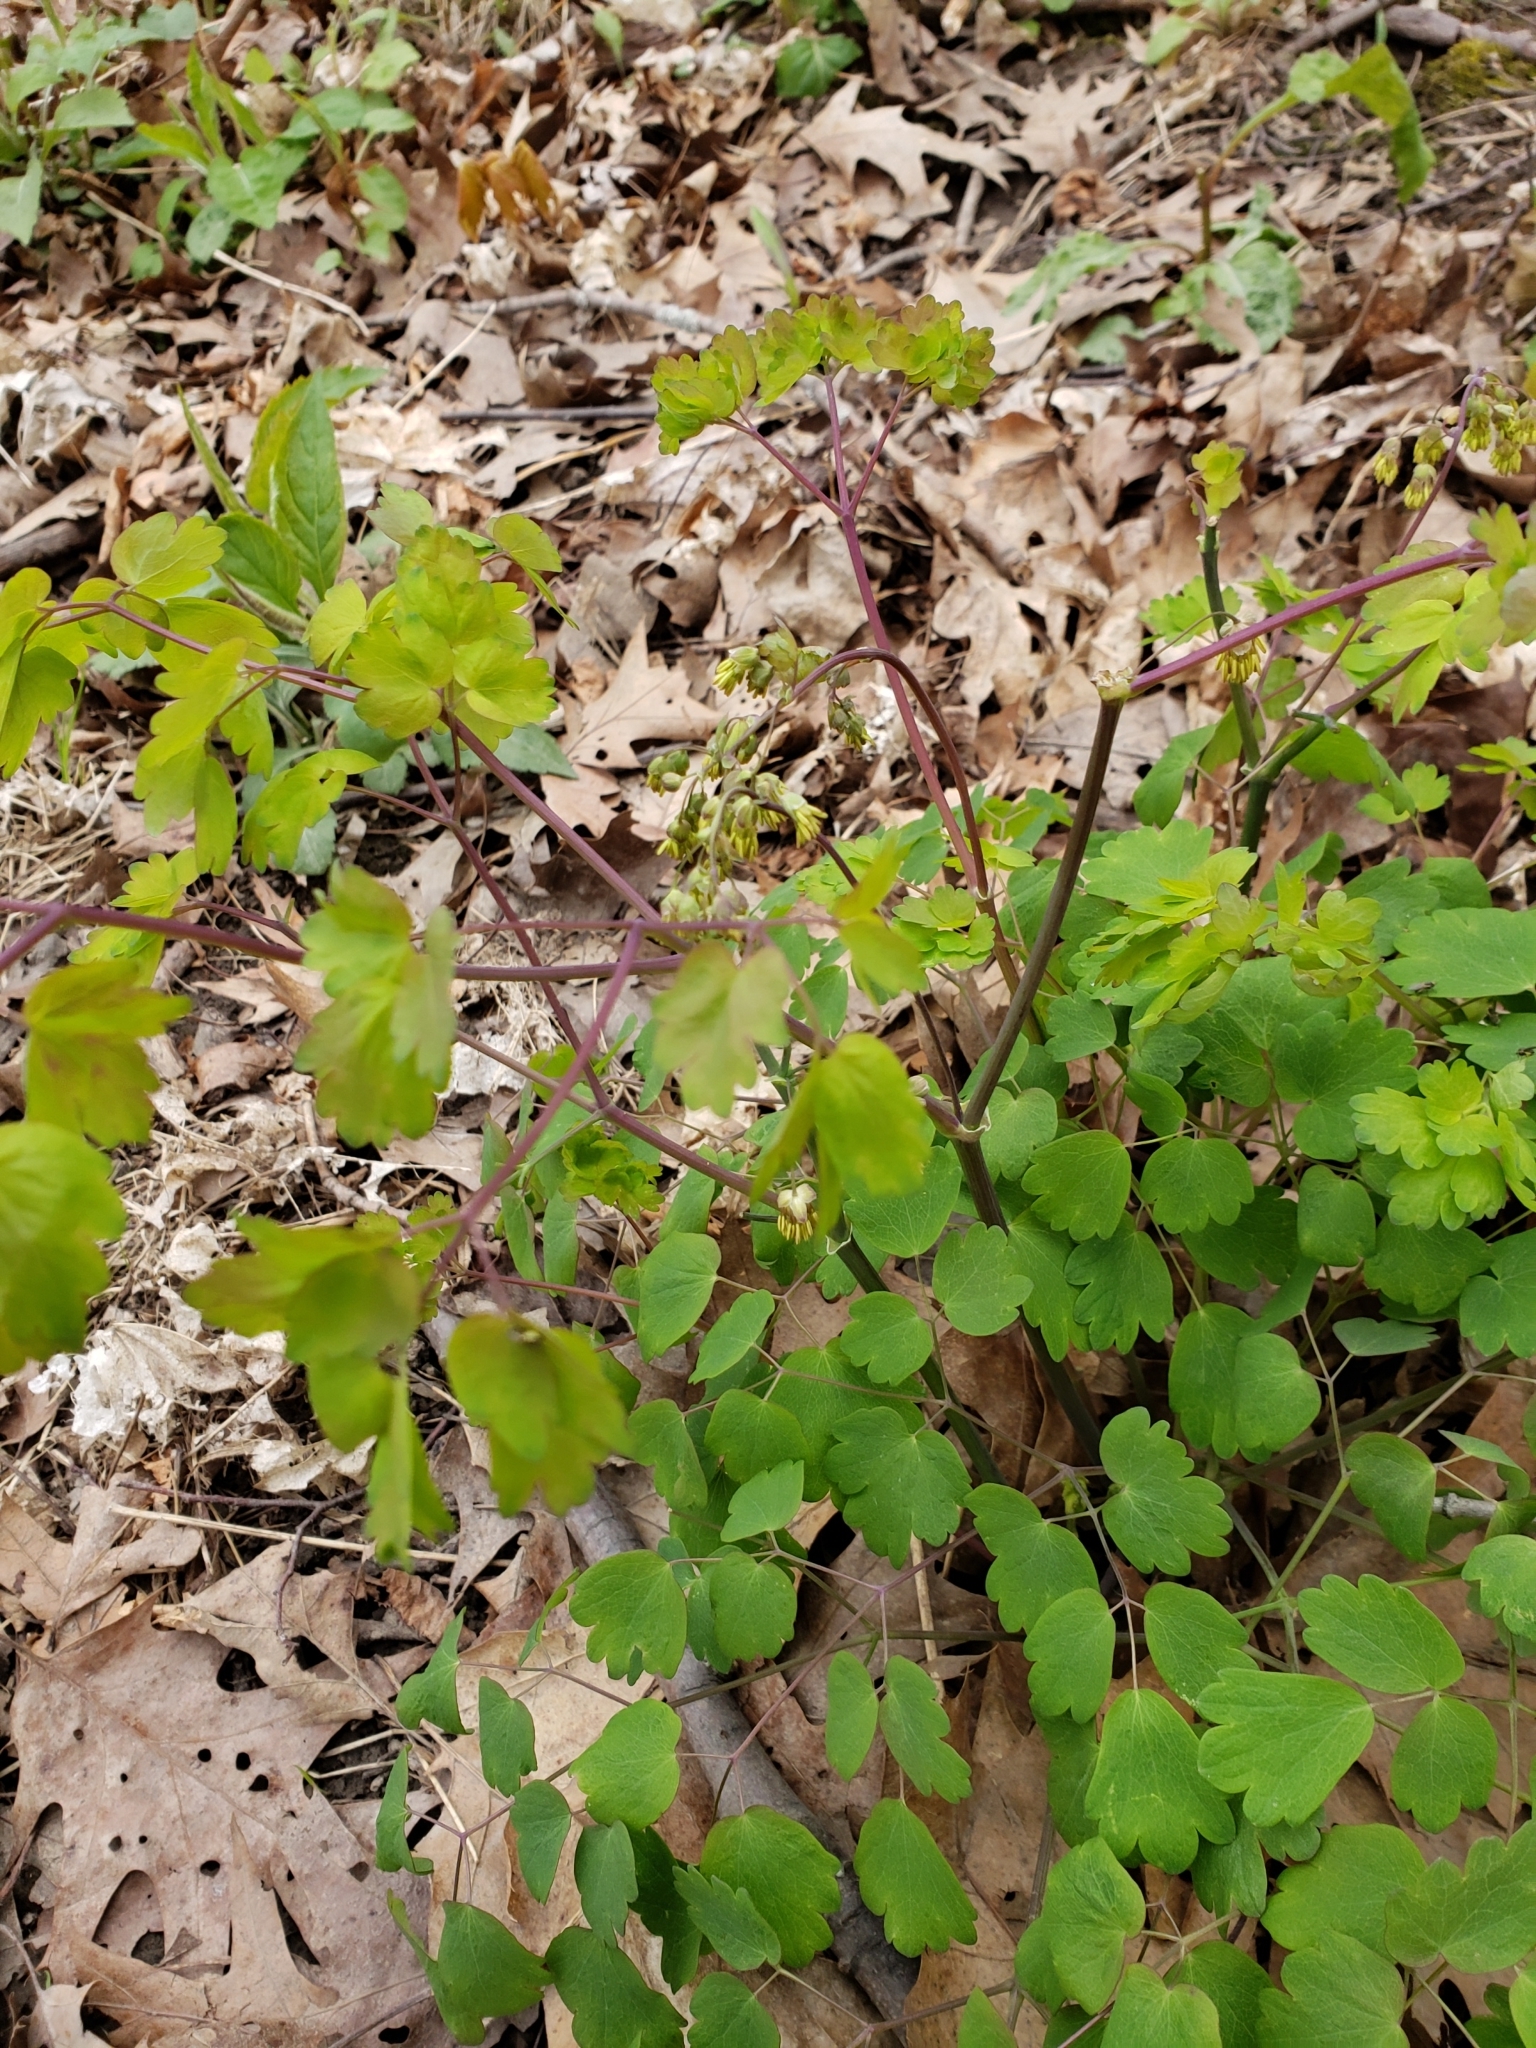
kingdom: Plantae
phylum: Tracheophyta
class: Magnoliopsida
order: Ranunculales
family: Ranunculaceae
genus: Thalictrum
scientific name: Thalictrum dioicum
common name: Early meadow-rue
